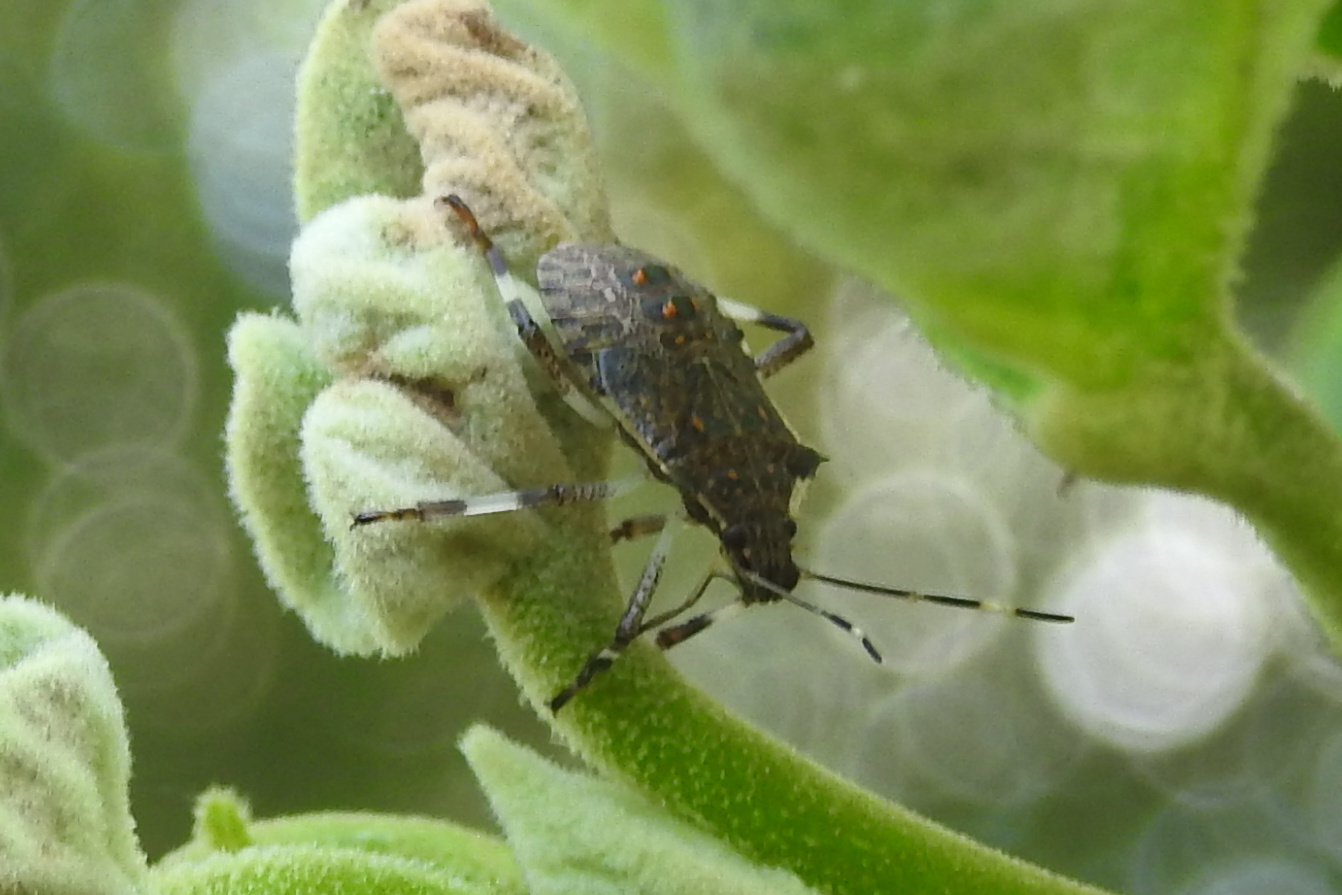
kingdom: Animalia
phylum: Arthropoda
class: Insecta
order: Hemiptera
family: Pentatomidae
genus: Halyomorpha
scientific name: Halyomorpha halys
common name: Brown marmorated stink bug
